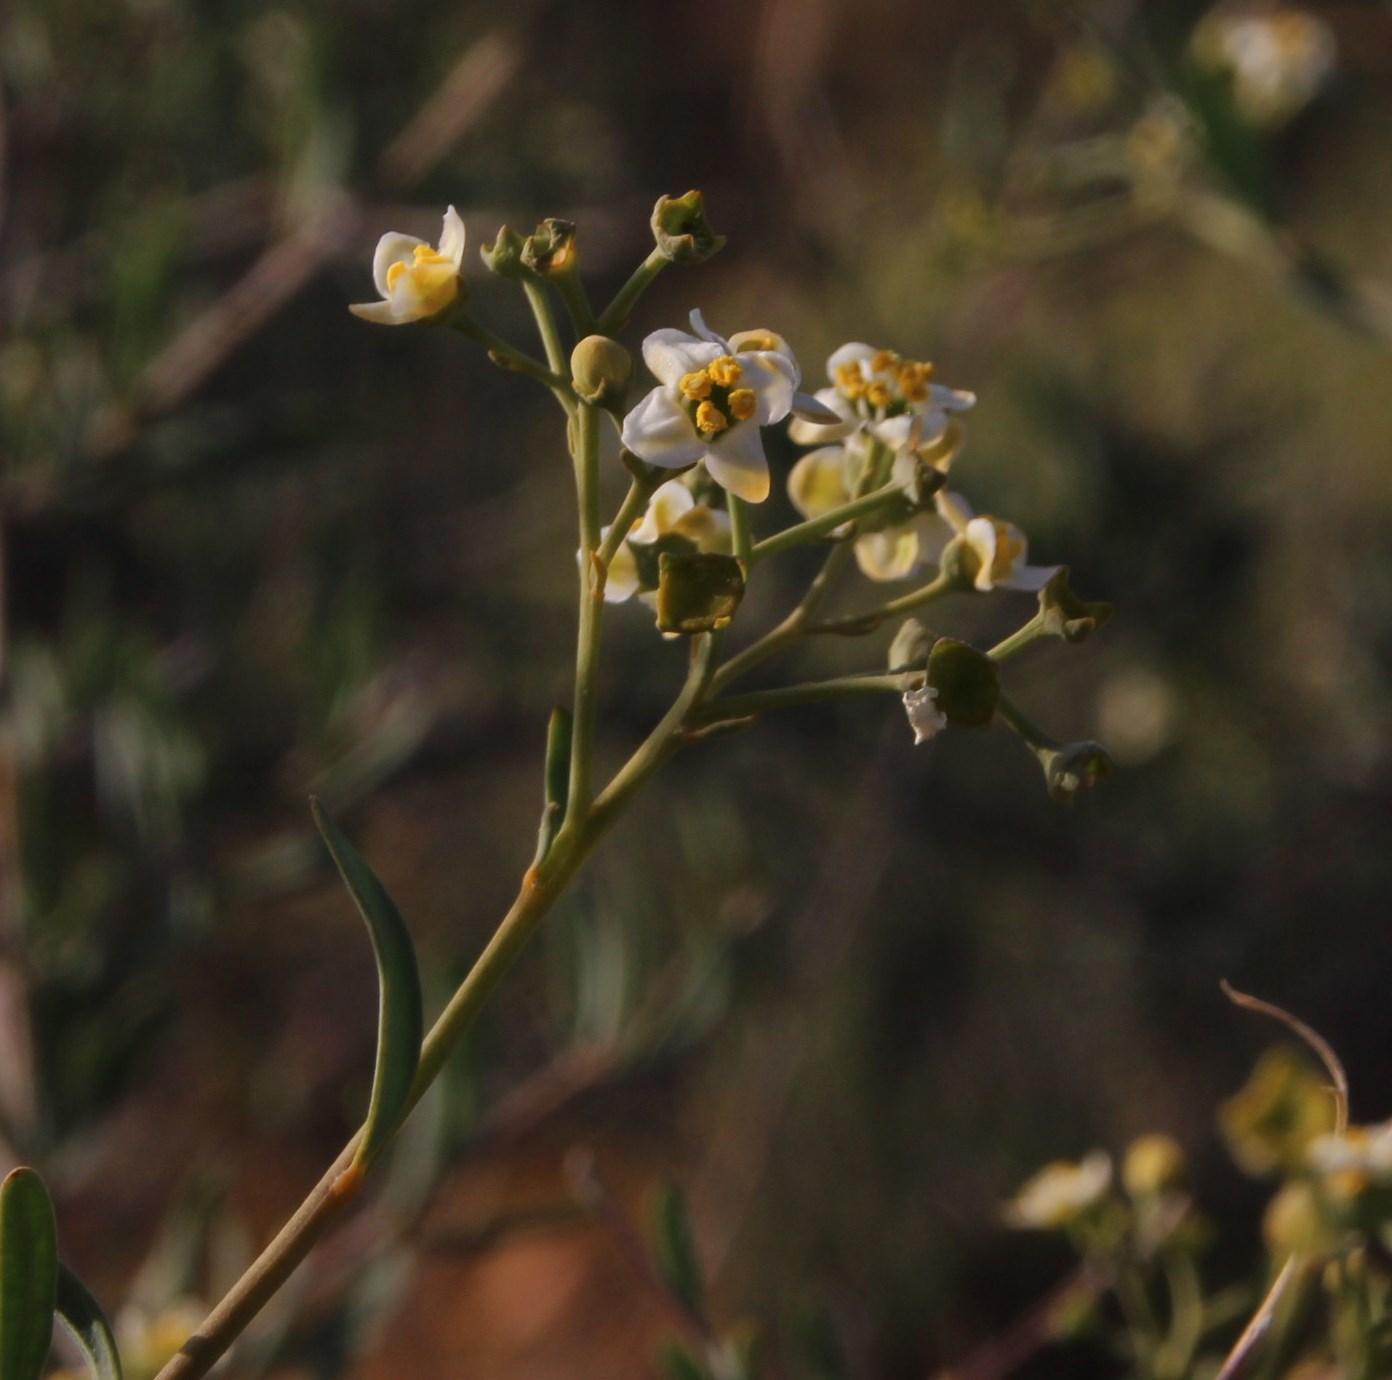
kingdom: Plantae
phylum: Tracheophyta
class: Magnoliopsida
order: Solanales
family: Montiniaceae
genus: Montinia
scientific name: Montinia caryophyllacea
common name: Wild clove-bush
